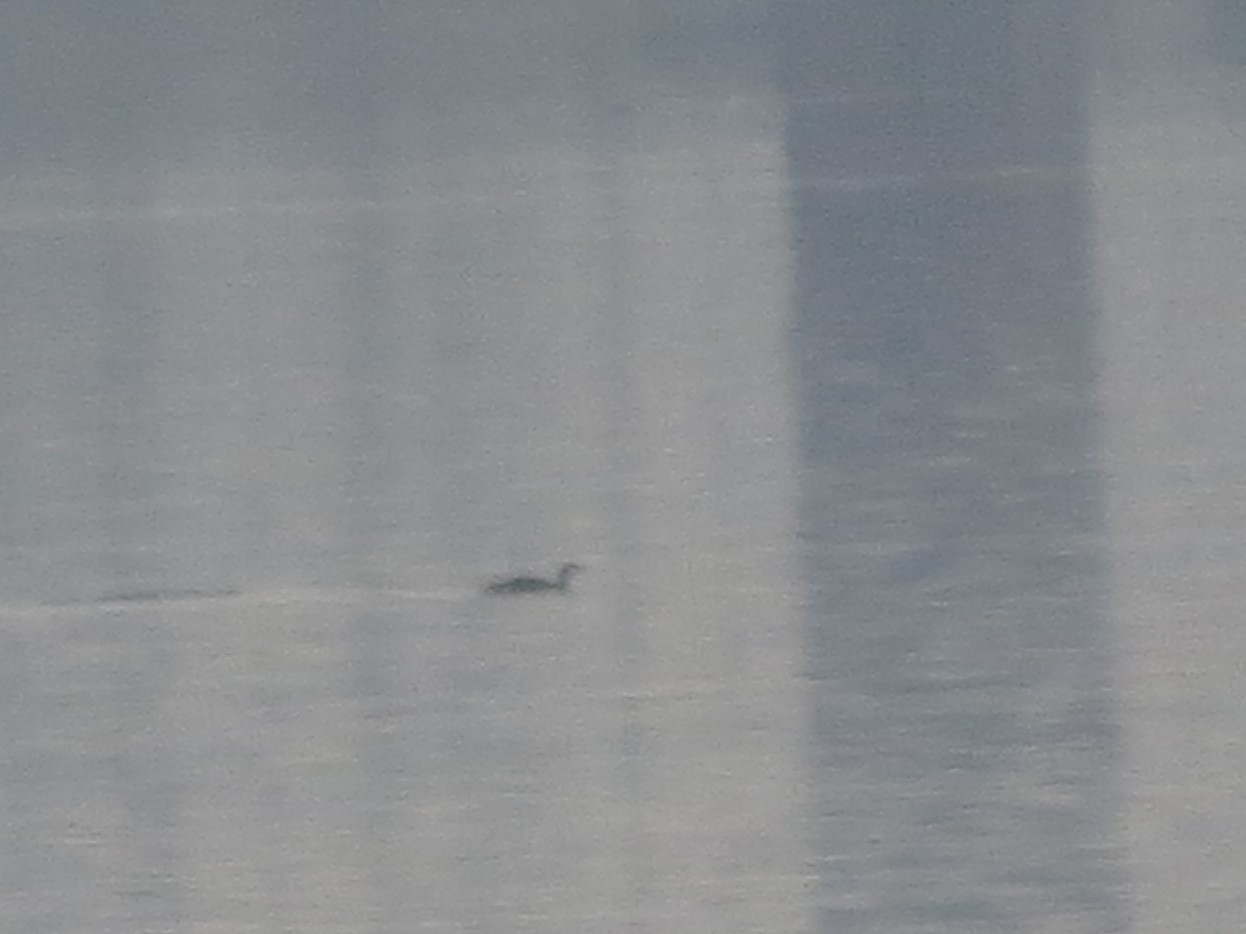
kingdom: Animalia
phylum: Chordata
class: Aves
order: Gaviiformes
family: Gaviidae
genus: Gavia
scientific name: Gavia stellata
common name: Red-throated loon
